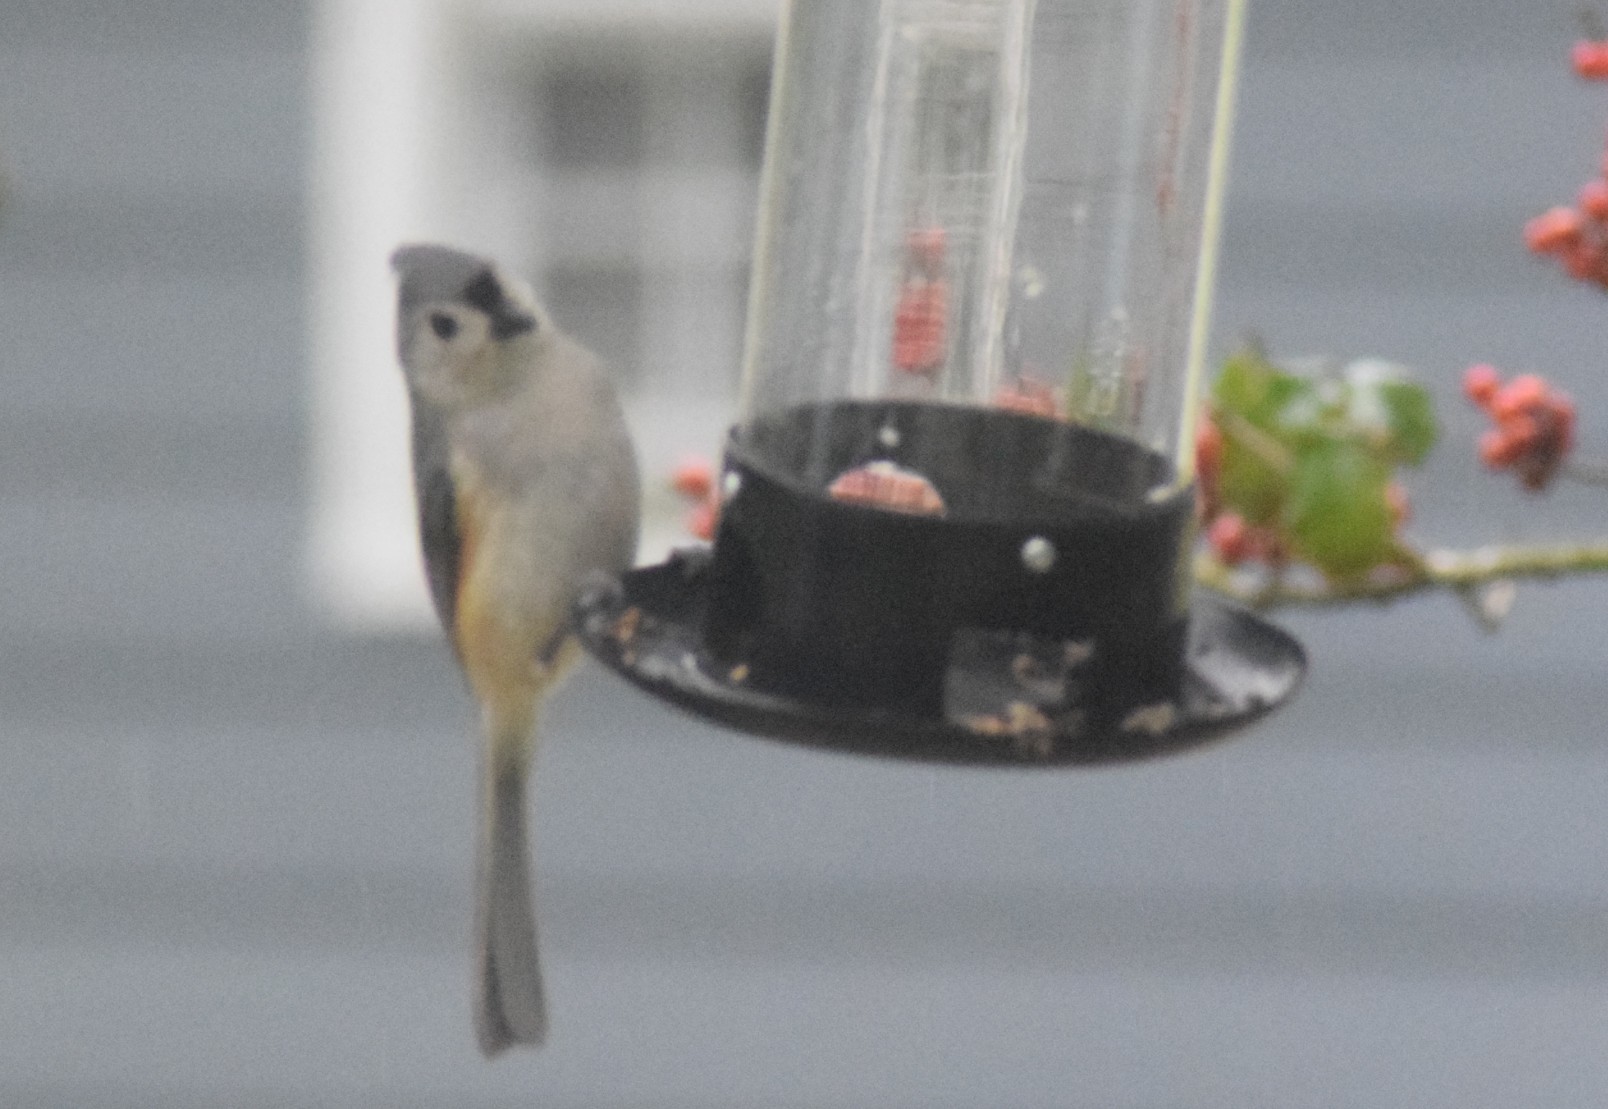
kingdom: Animalia
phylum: Chordata
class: Aves
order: Passeriformes
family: Paridae
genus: Baeolophus
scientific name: Baeolophus bicolor
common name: Tufted titmouse
